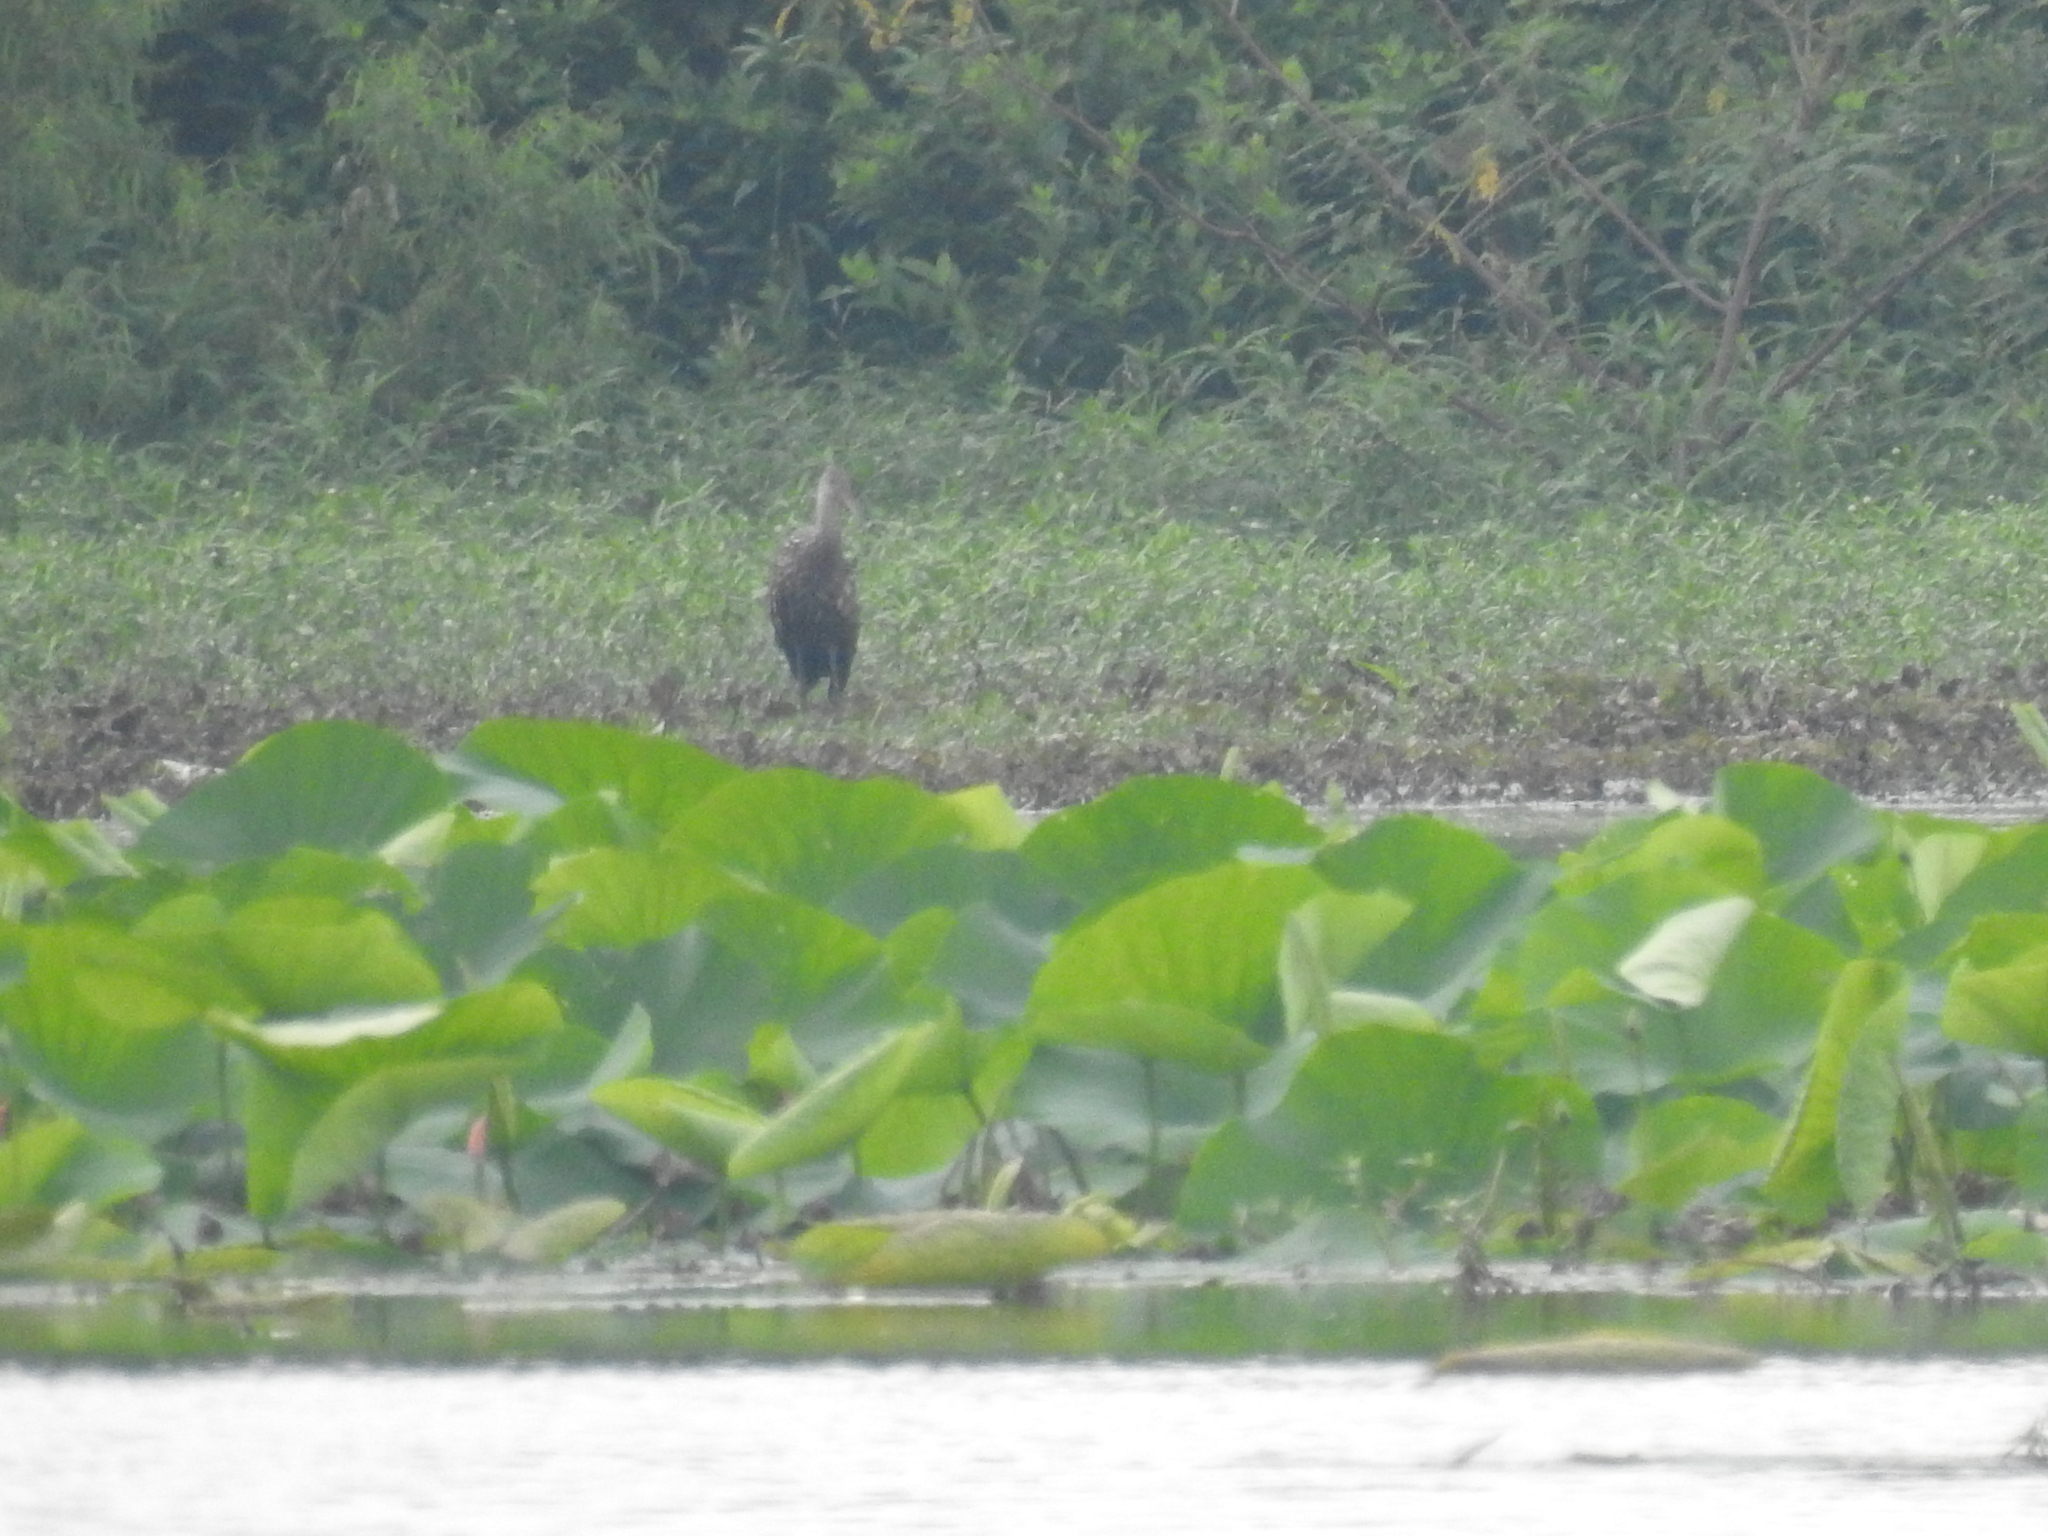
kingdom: Animalia
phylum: Chordata
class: Aves
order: Gruiformes
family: Aramidae
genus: Aramus
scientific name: Aramus guarauna
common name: Limpkin
